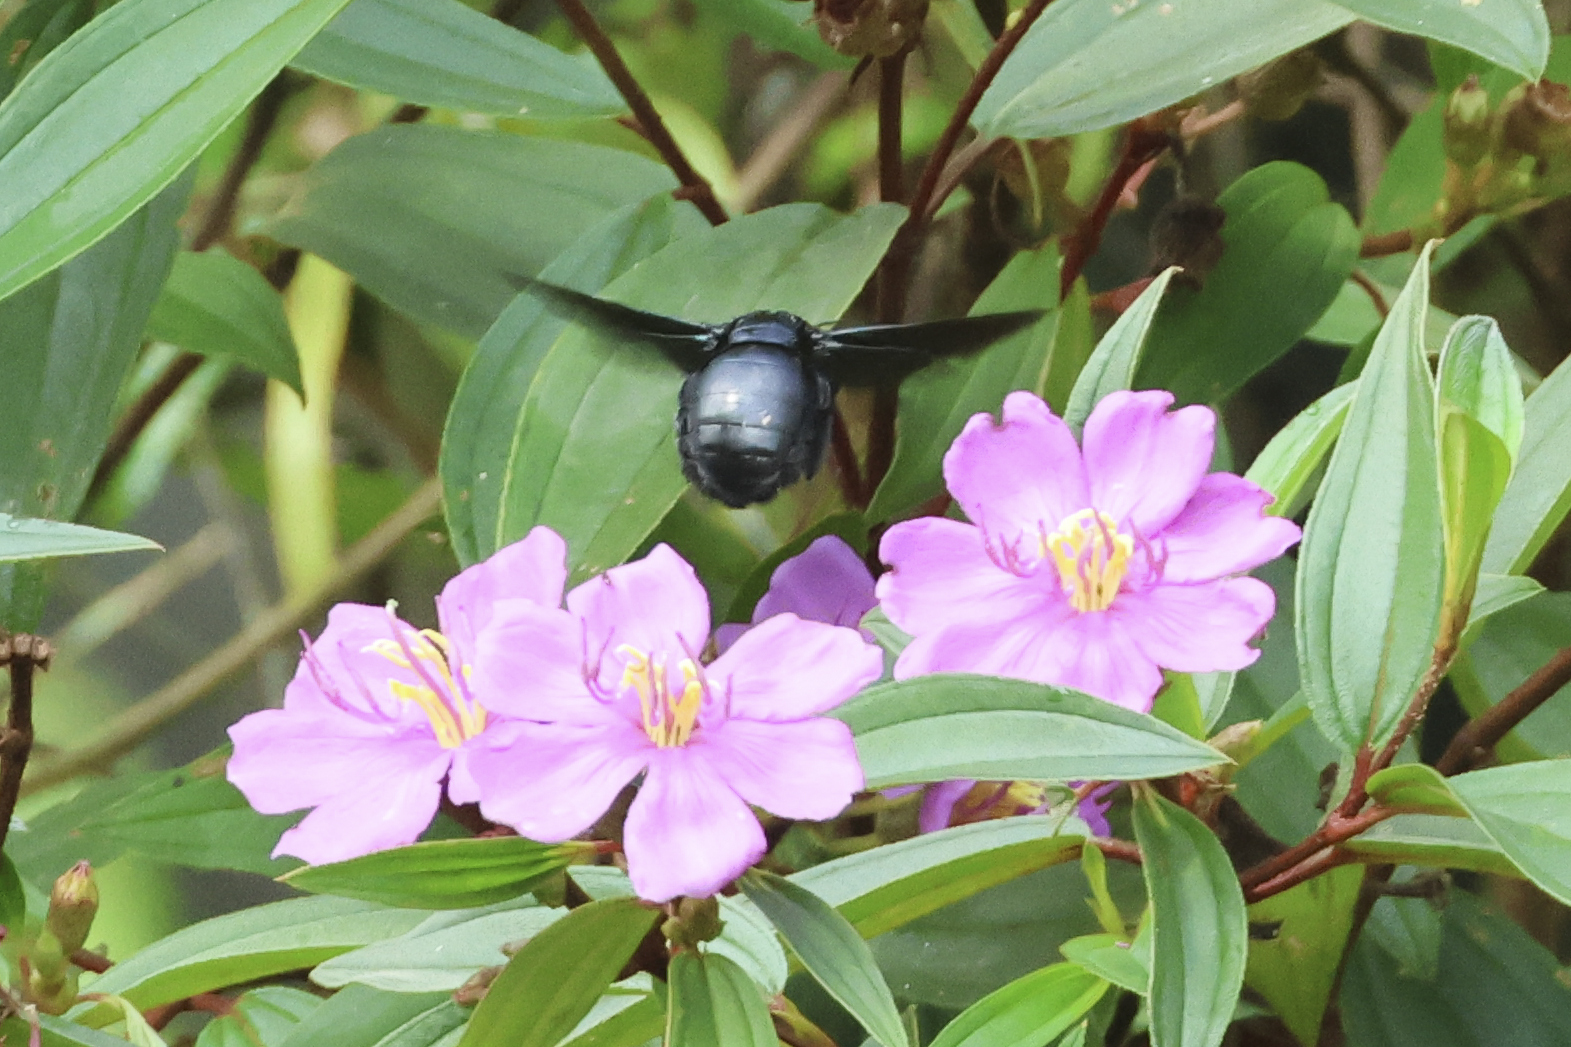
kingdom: Animalia
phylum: Arthropoda
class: Insecta
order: Hymenoptera
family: Apidae
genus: Xylocopa
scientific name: Xylocopa latipes
